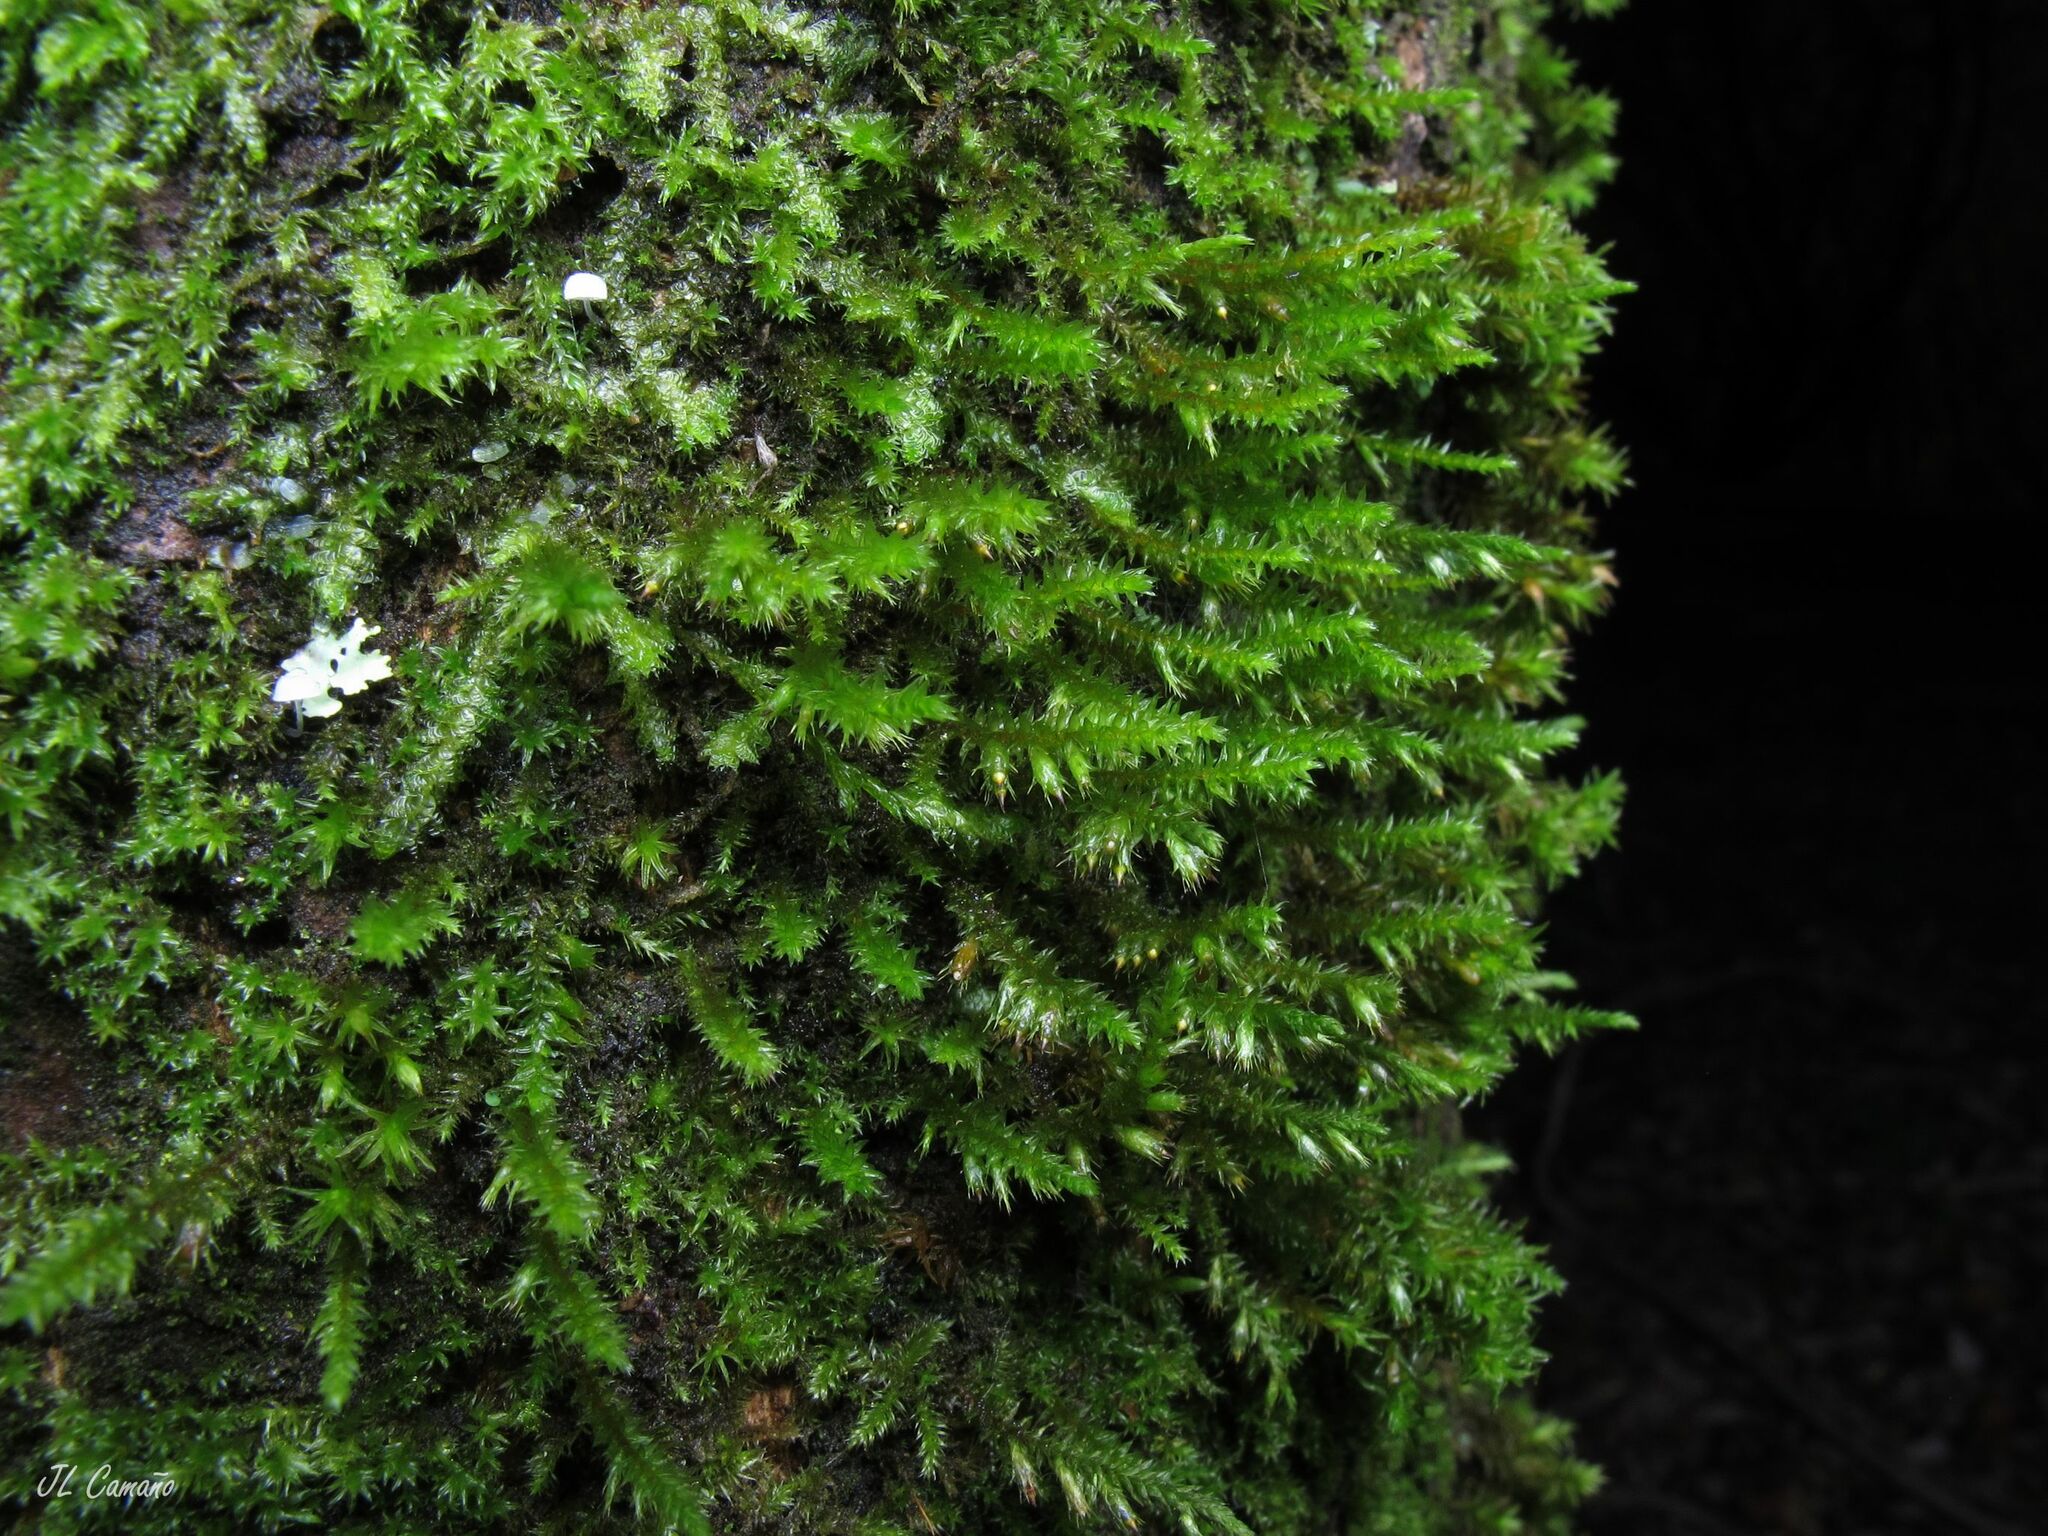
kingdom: Plantae
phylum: Bryophyta
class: Bryopsida
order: Hypnales
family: Cryphaeaceae
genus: Cryphaea
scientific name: Cryphaea heteromalla
